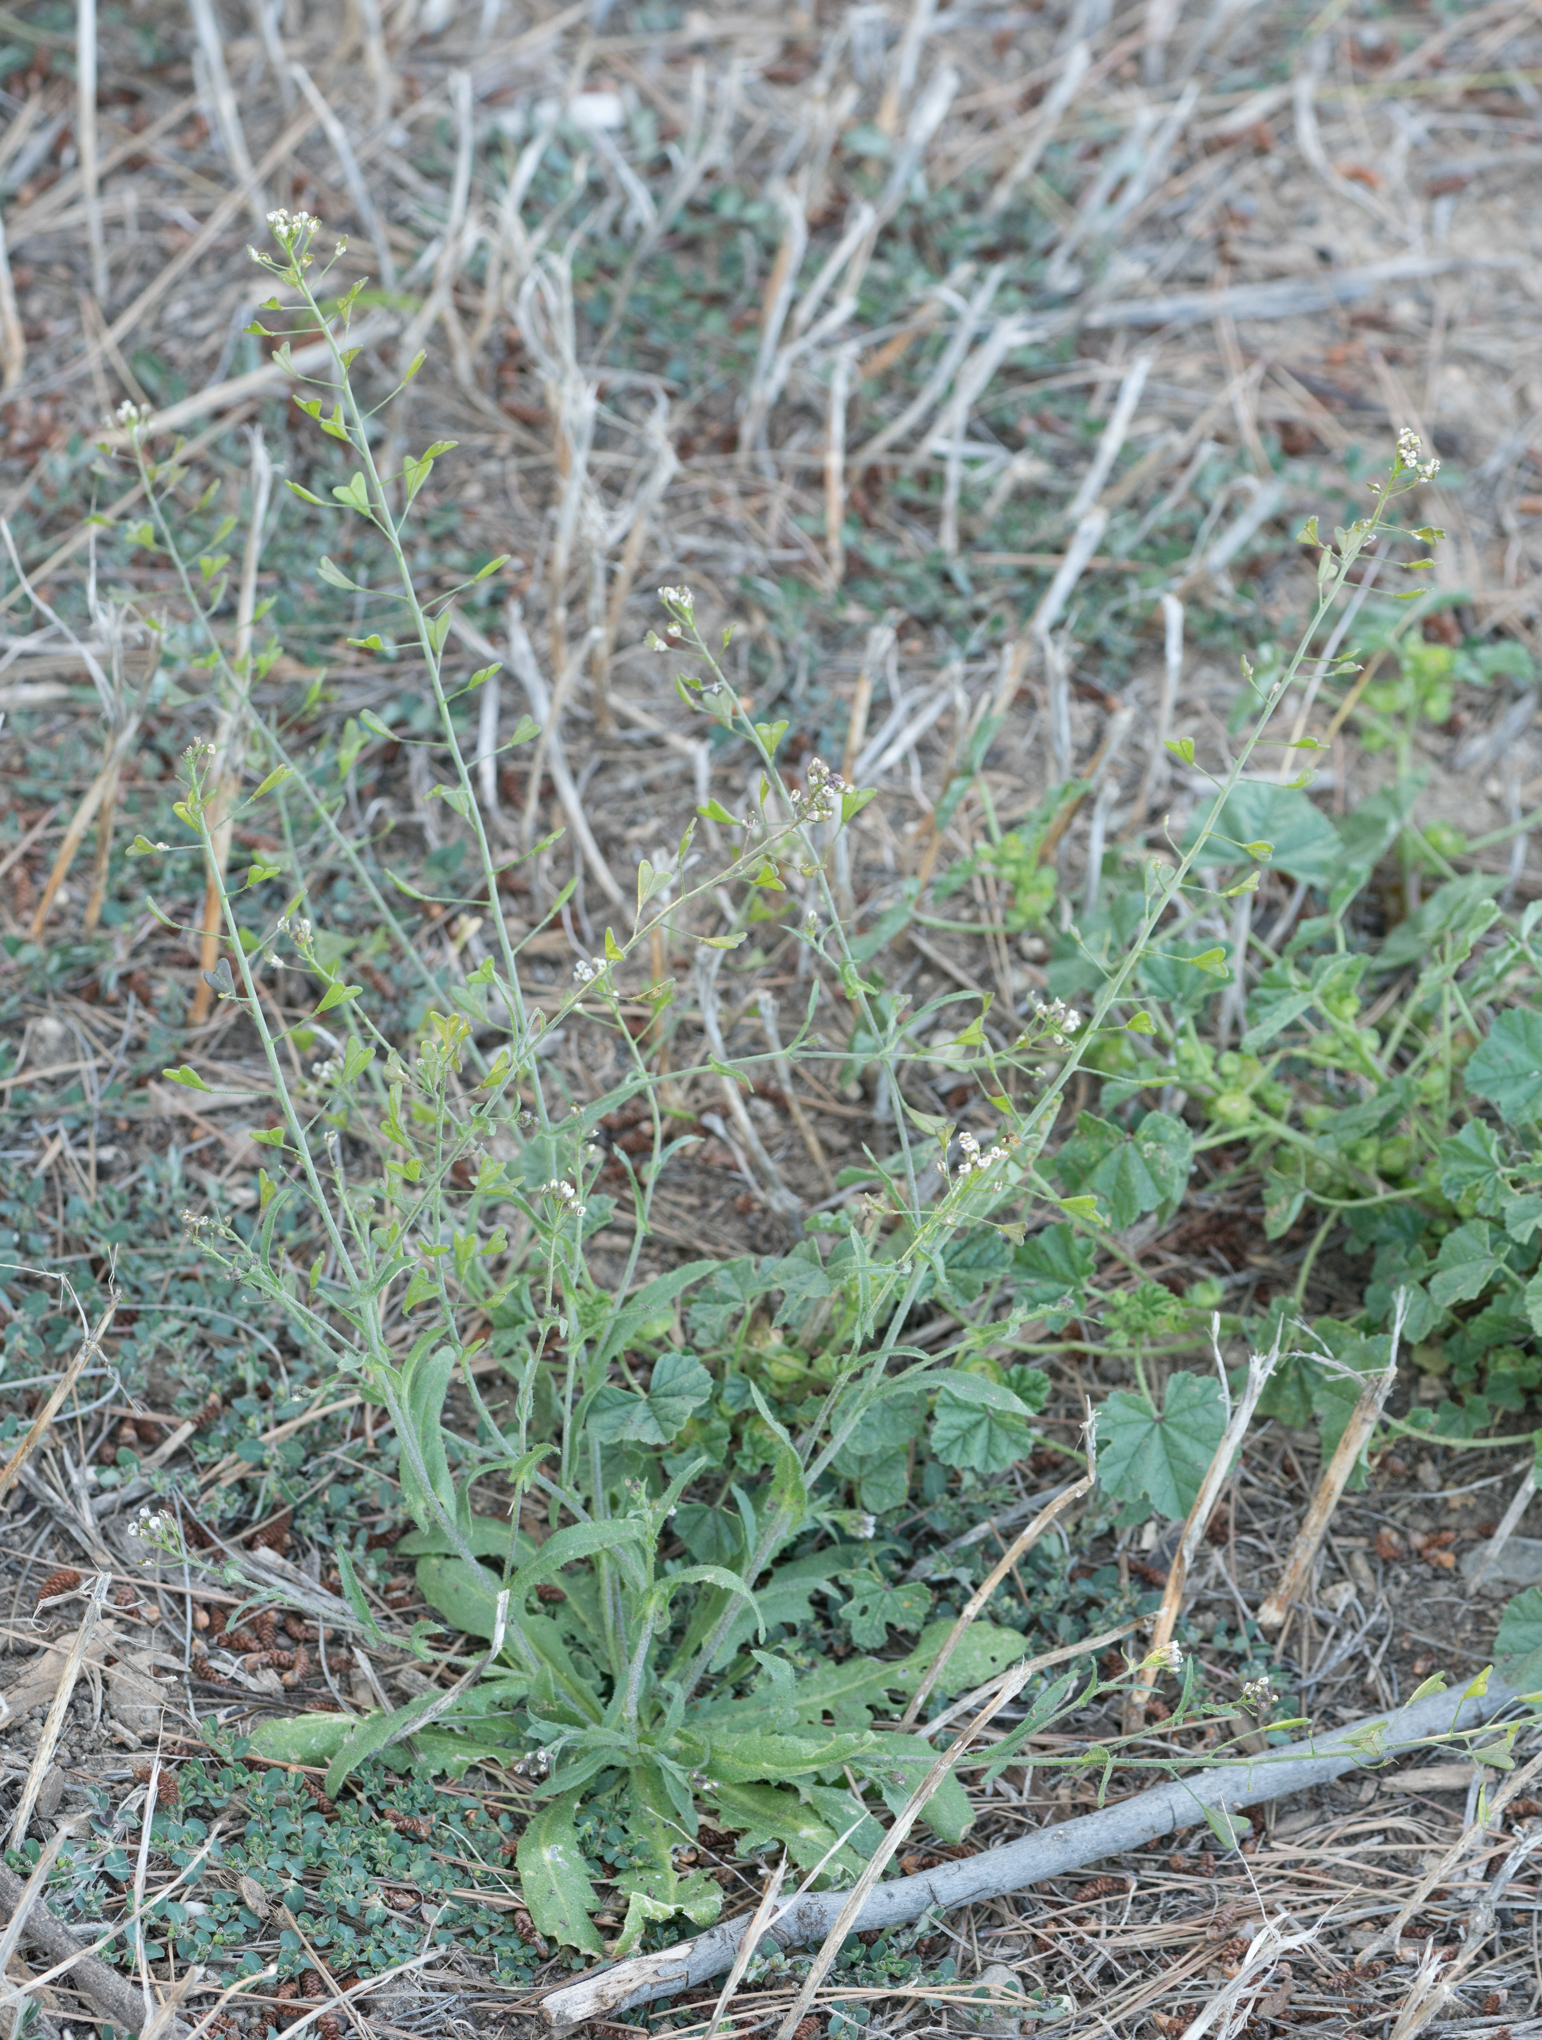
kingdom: Plantae
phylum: Tracheophyta
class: Magnoliopsida
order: Brassicales
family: Brassicaceae
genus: Capsella
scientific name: Capsella bursa-pastoris
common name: Shepherd's purse
